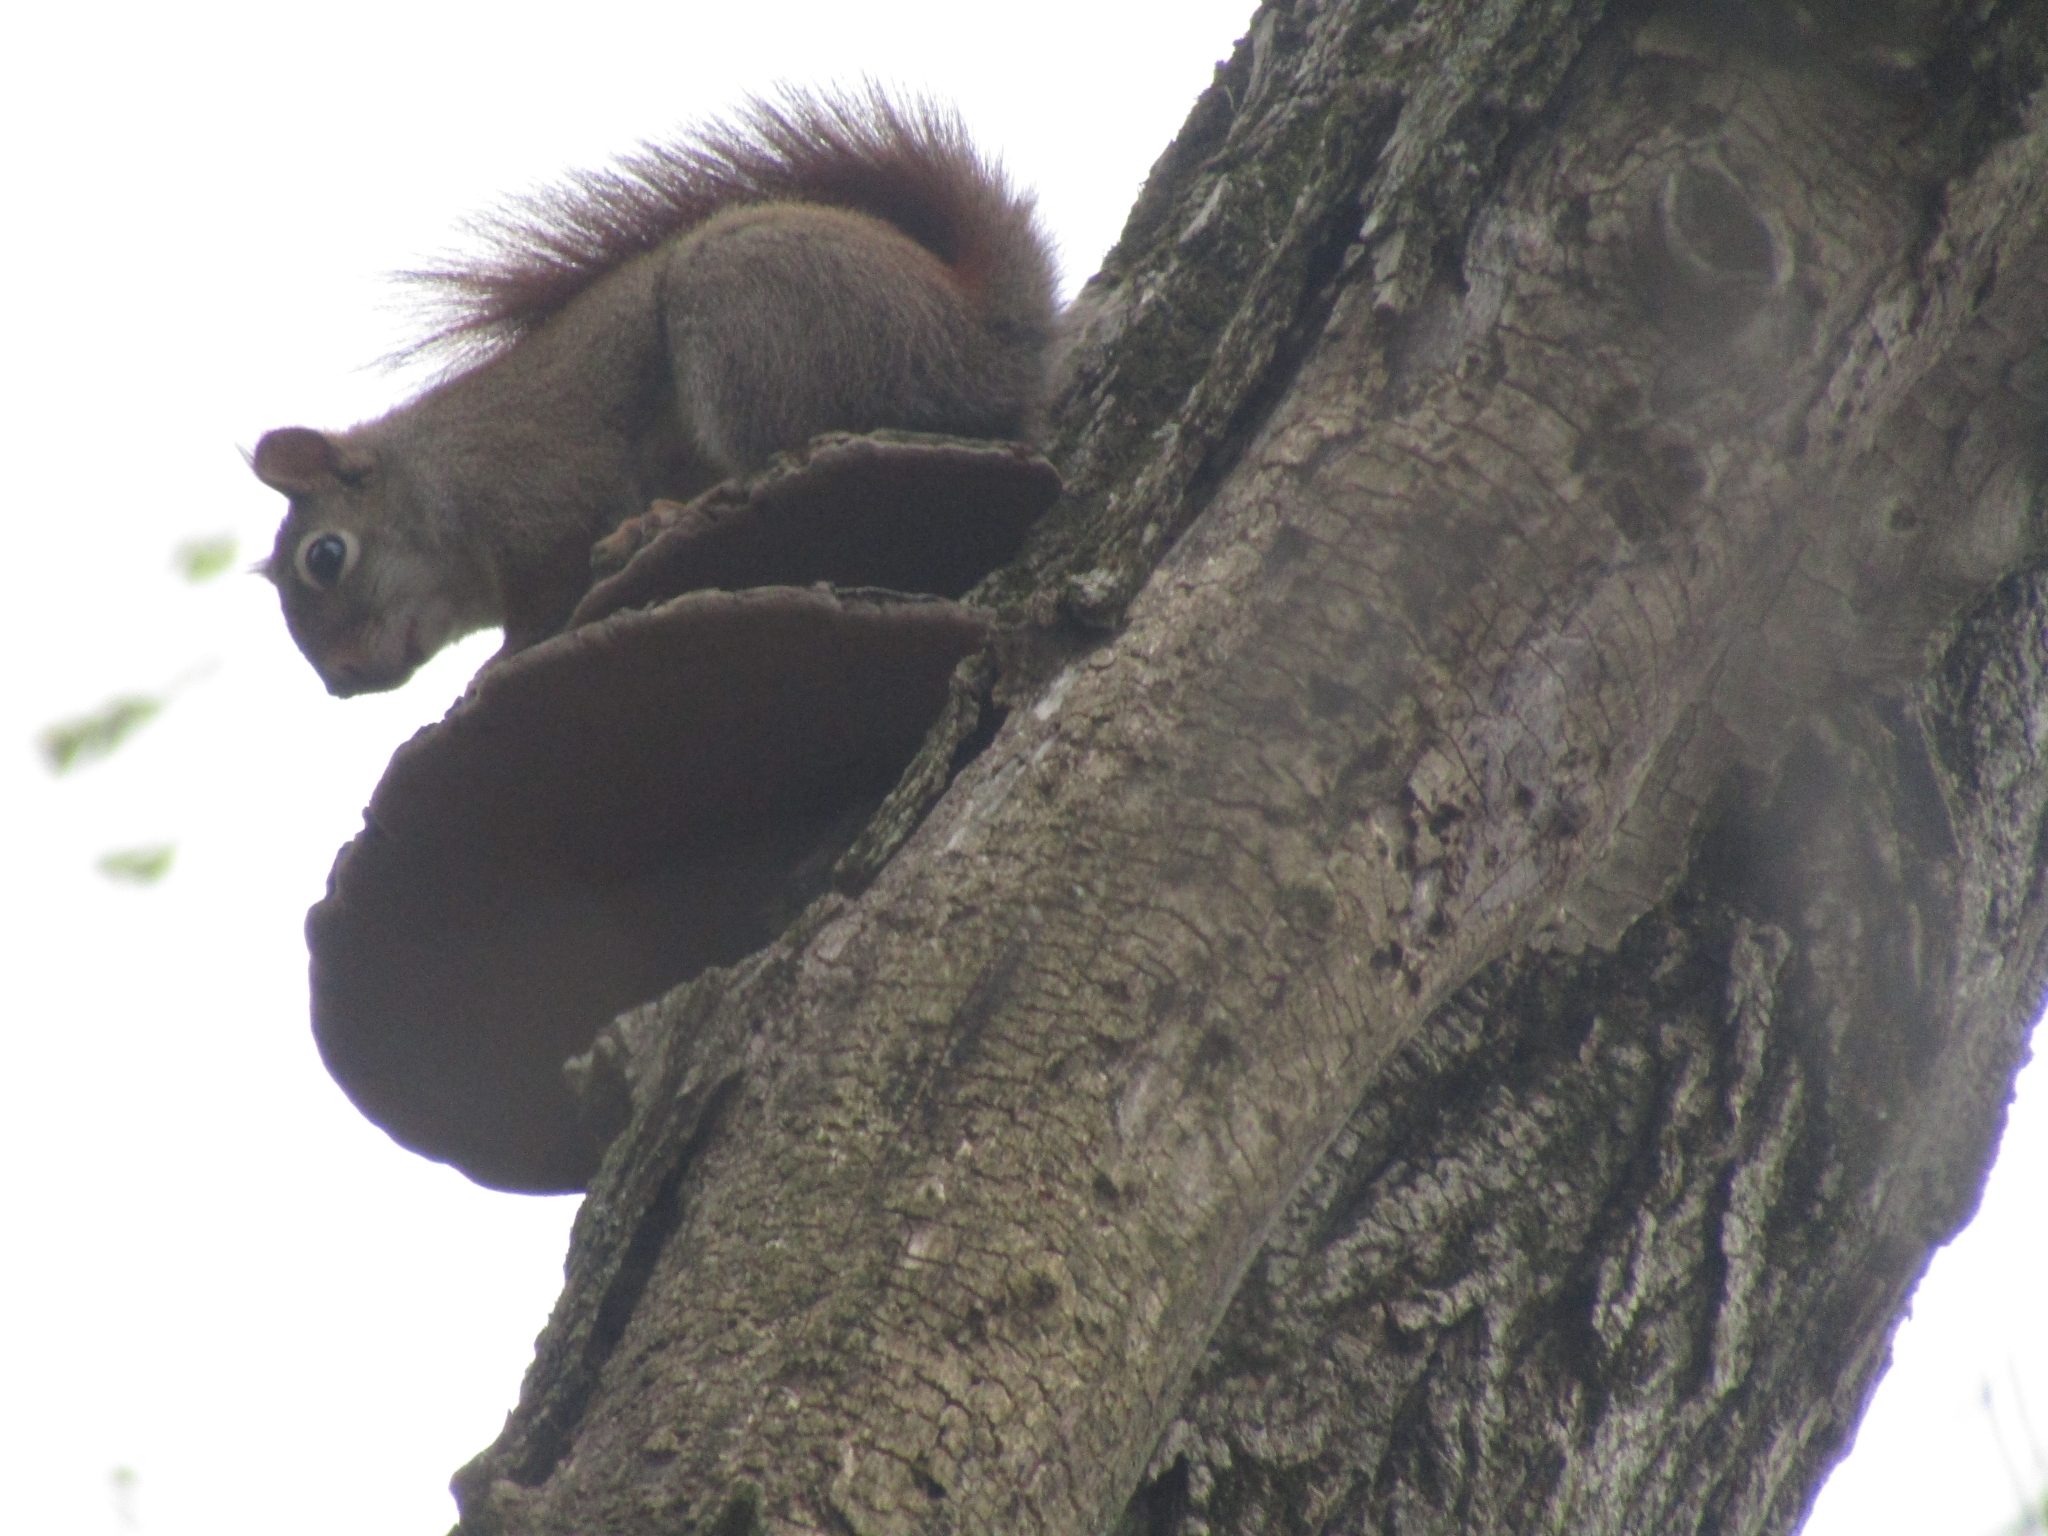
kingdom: Animalia
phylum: Chordata
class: Mammalia
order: Rodentia
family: Sciuridae
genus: Tamiasciurus
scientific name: Tamiasciurus hudsonicus
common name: Red squirrel
